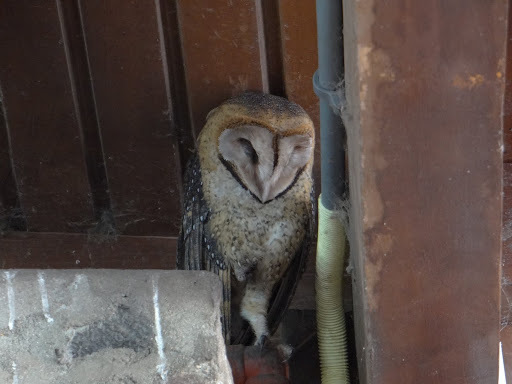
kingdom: Animalia
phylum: Chordata
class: Aves
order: Strigiformes
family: Tytonidae
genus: Tyto
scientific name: Tyto furcata
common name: American barn owl
